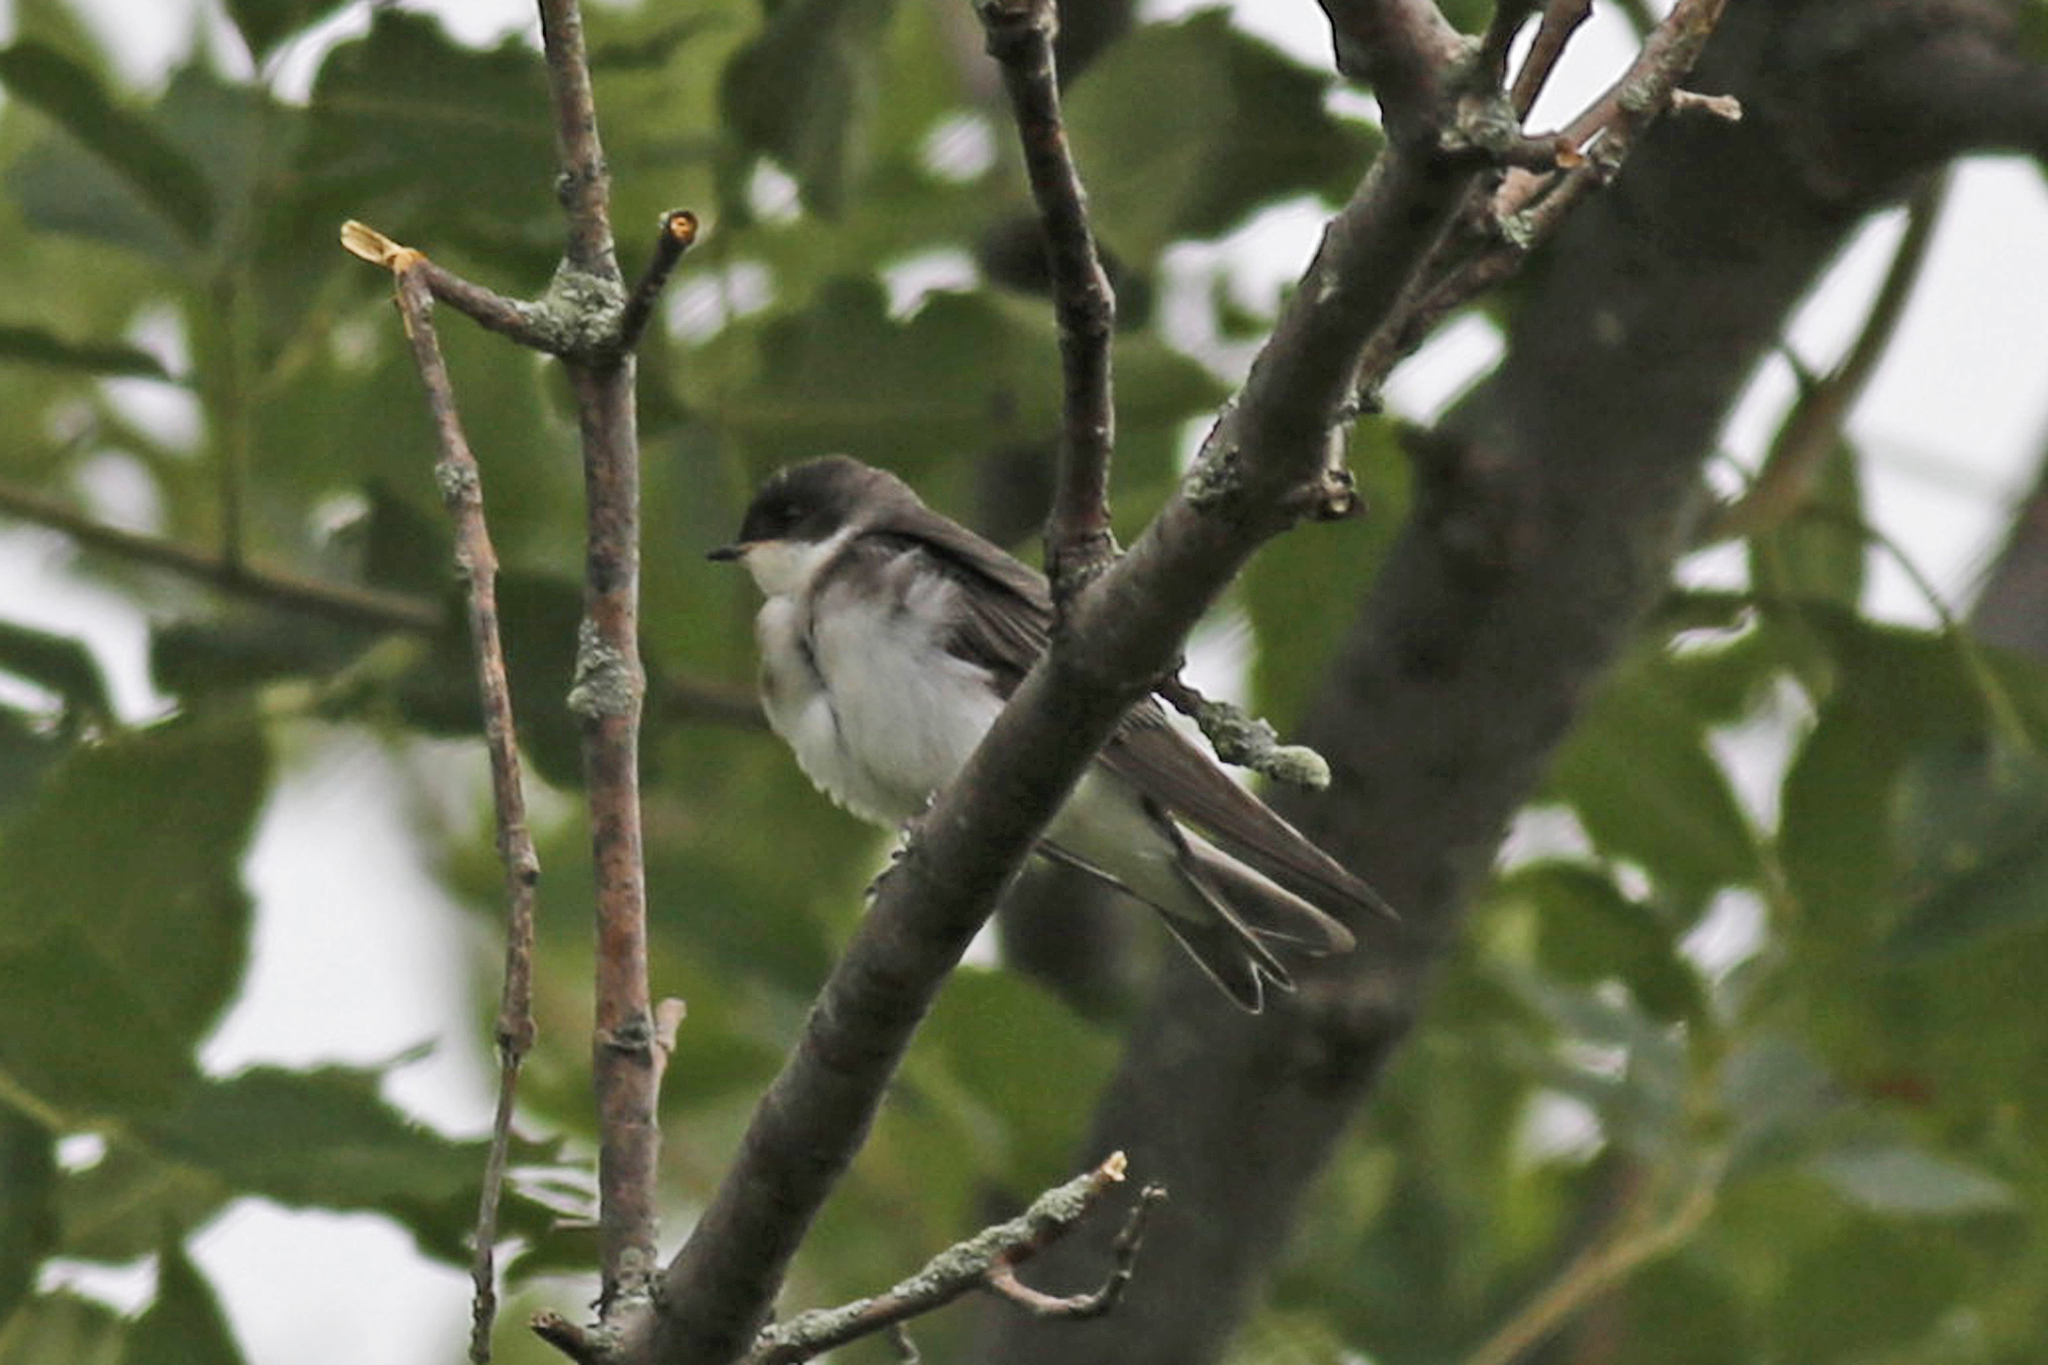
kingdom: Animalia
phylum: Chordata
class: Aves
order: Passeriformes
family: Hirundinidae
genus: Tachycineta
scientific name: Tachycineta bicolor
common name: Tree swallow
